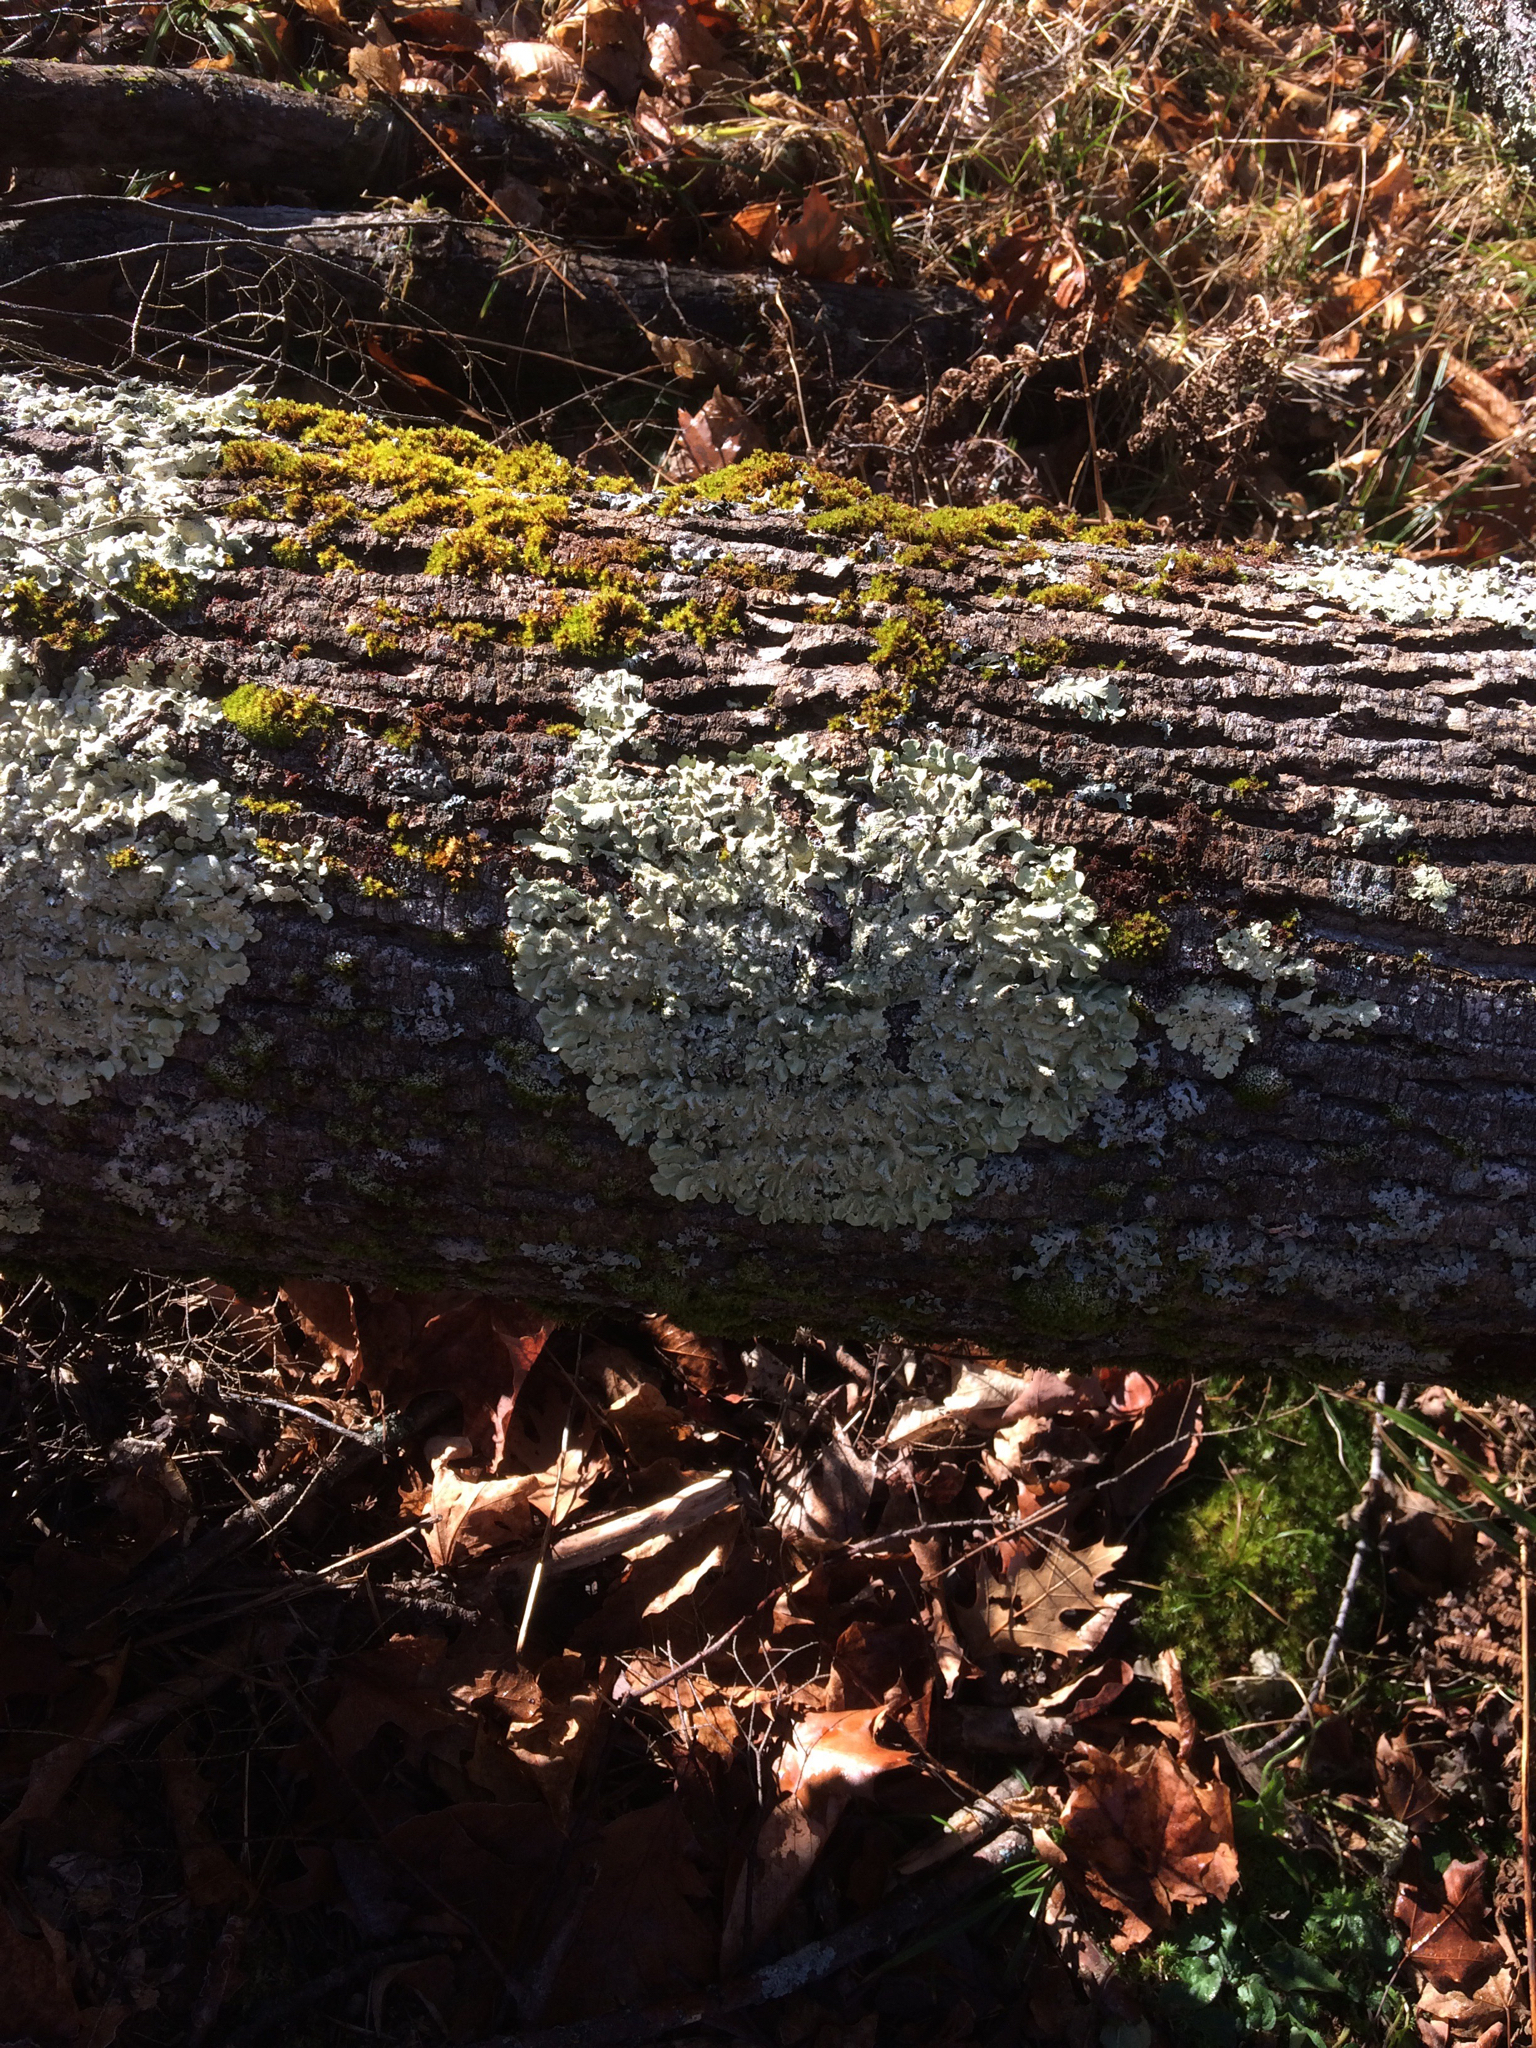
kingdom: Fungi
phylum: Ascomycota
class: Lecanoromycetes
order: Lecanorales
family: Parmeliaceae
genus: Flavoparmelia
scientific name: Flavoparmelia caperata
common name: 40-mile per hour lichen
